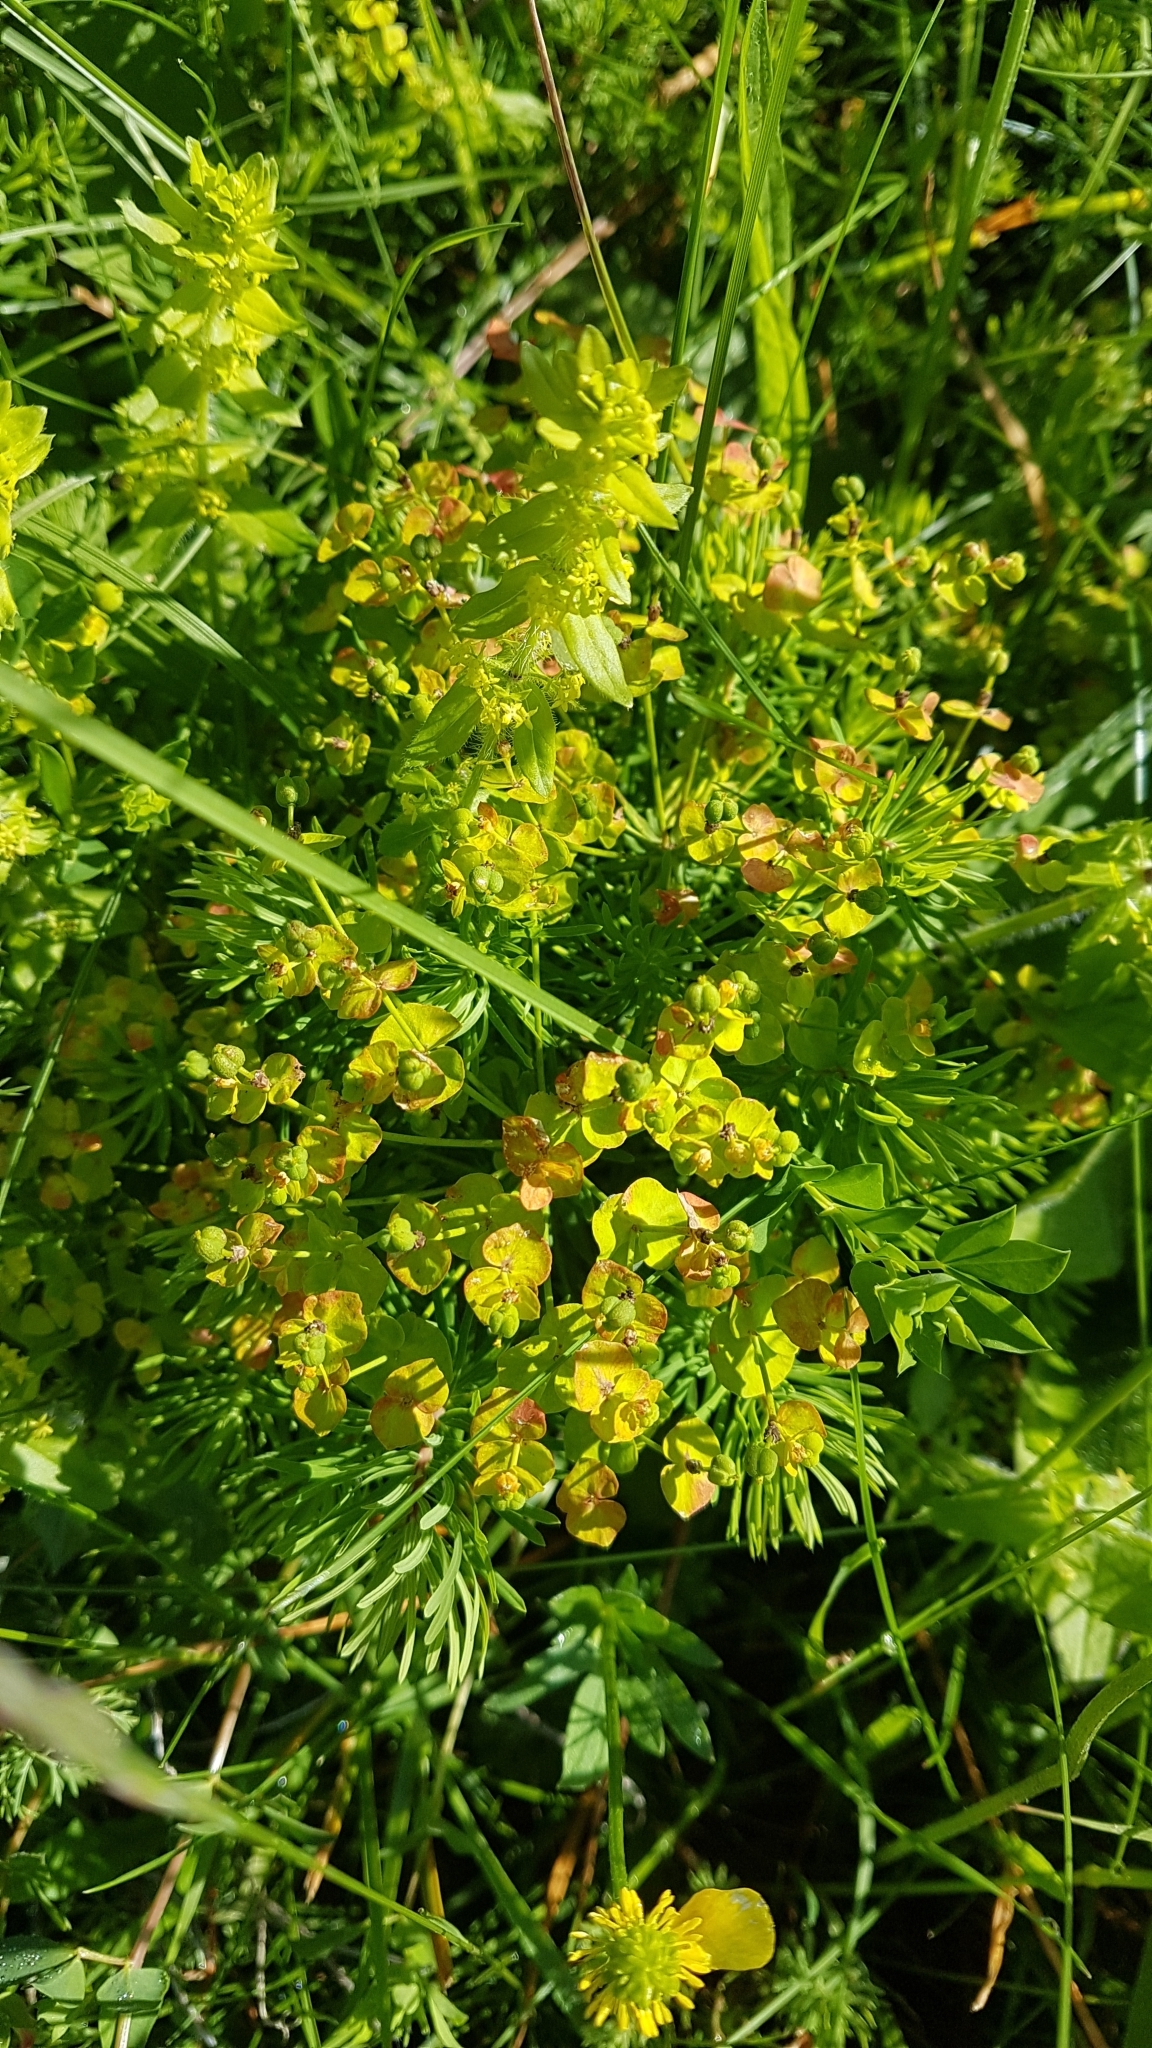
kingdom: Plantae
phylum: Tracheophyta
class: Magnoliopsida
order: Malpighiales
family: Euphorbiaceae
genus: Euphorbia
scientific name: Euphorbia cyparissias
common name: Cypress spurge
